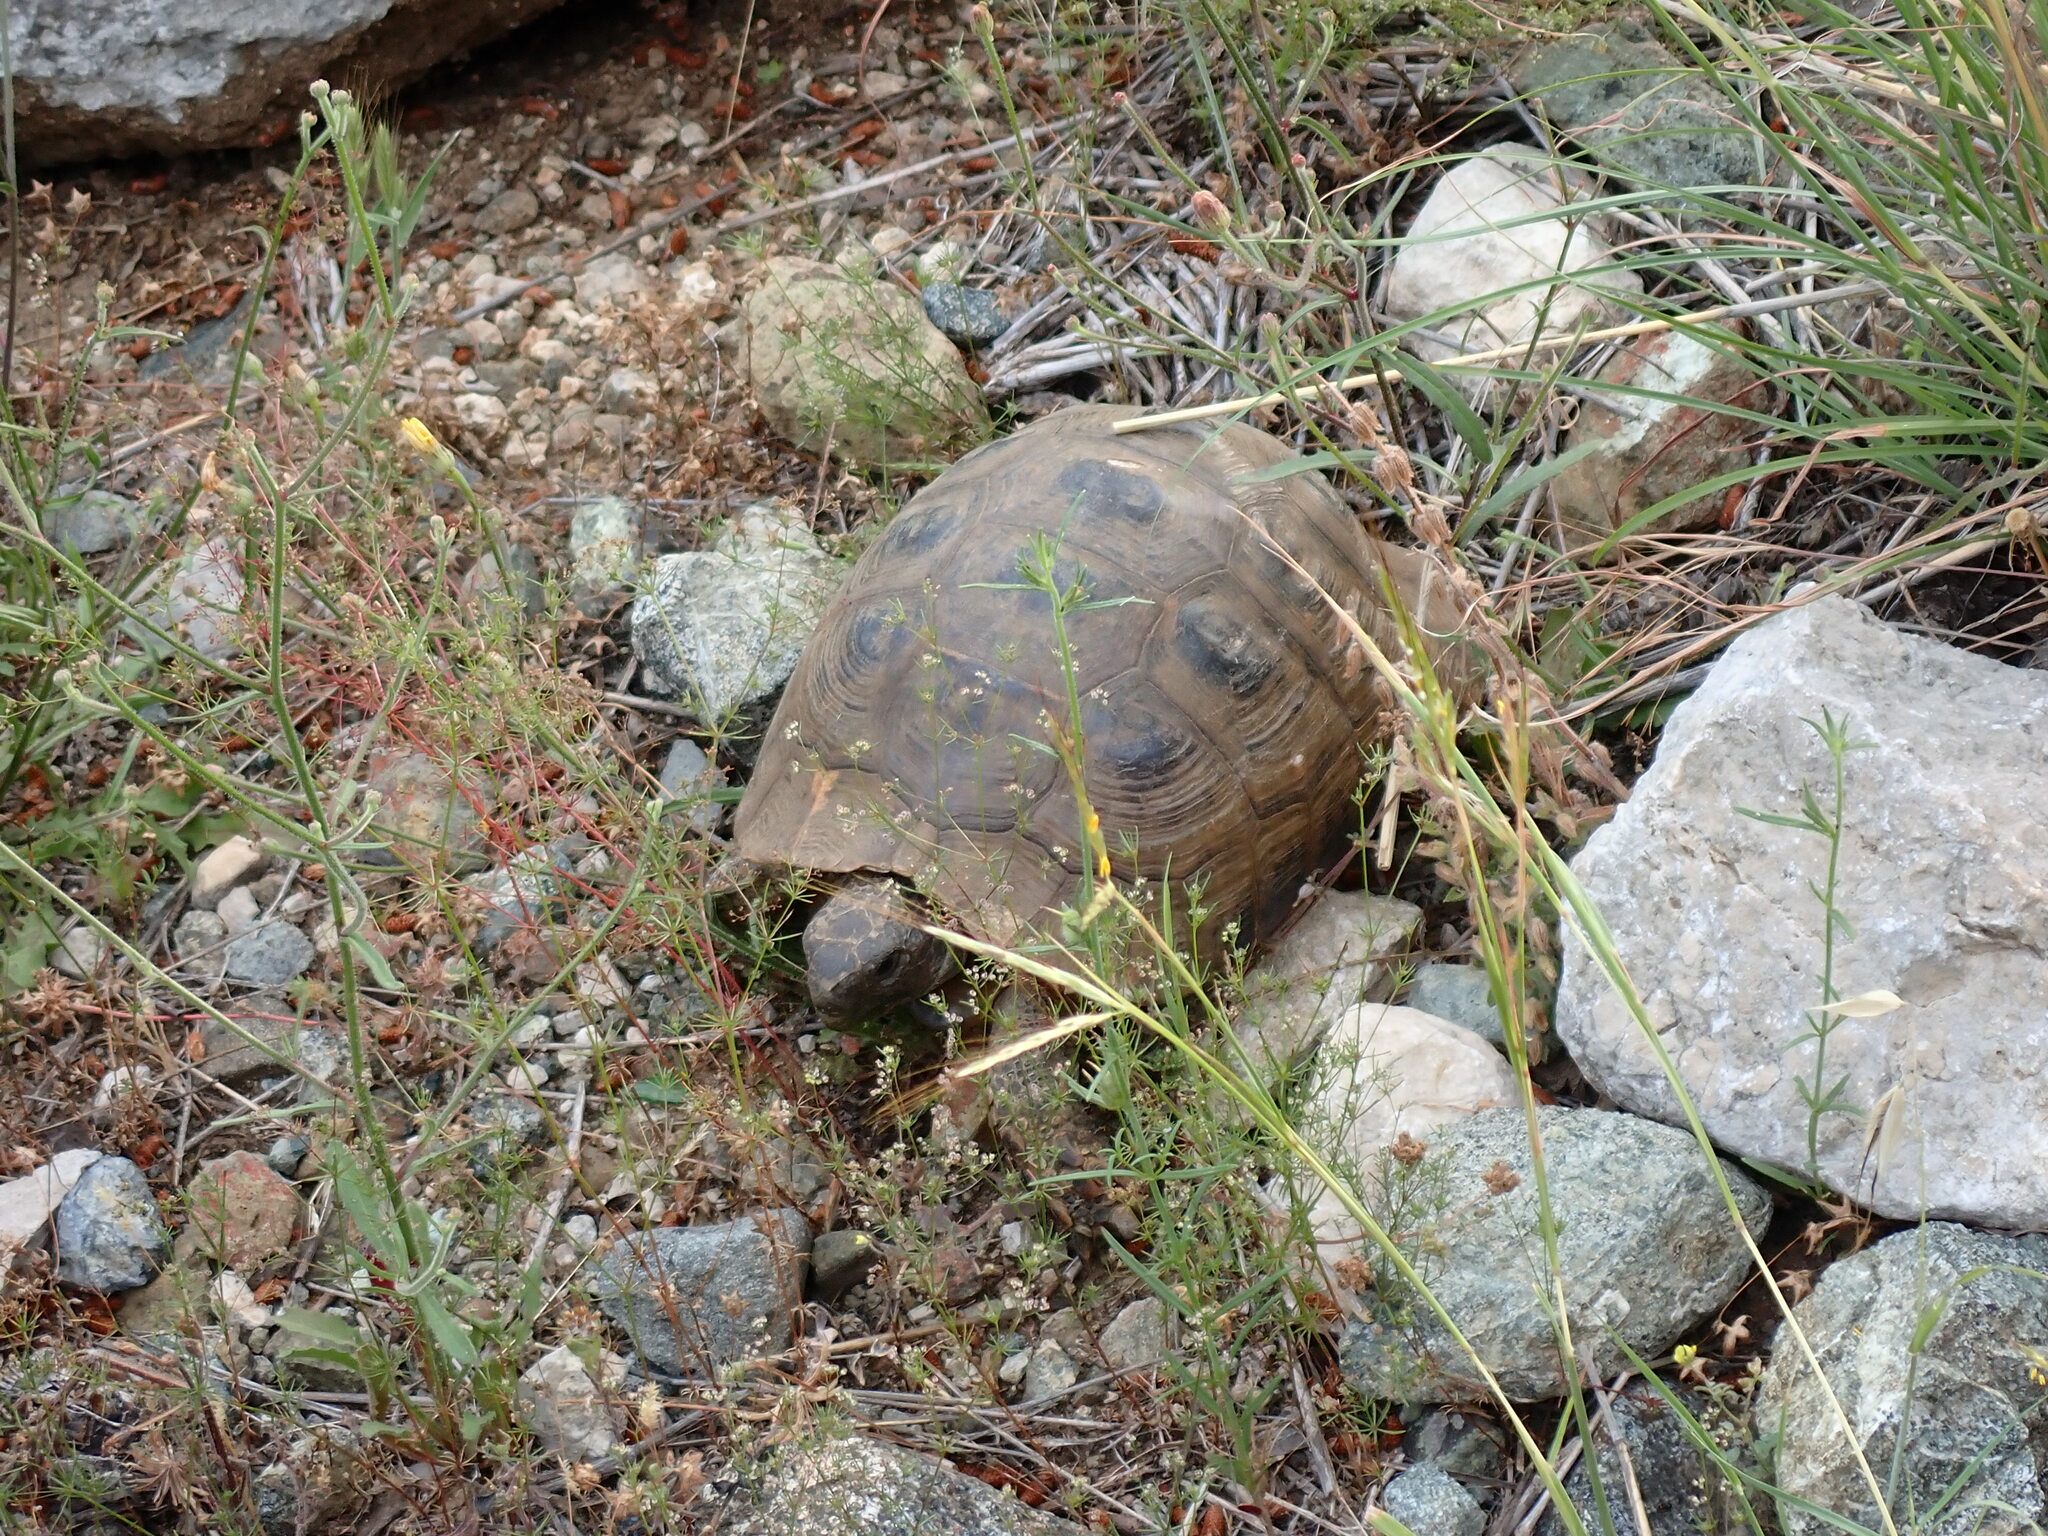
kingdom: Animalia
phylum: Chordata
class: Testudines
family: Testudinidae
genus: Testudo
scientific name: Testudo graeca
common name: Common tortoise
